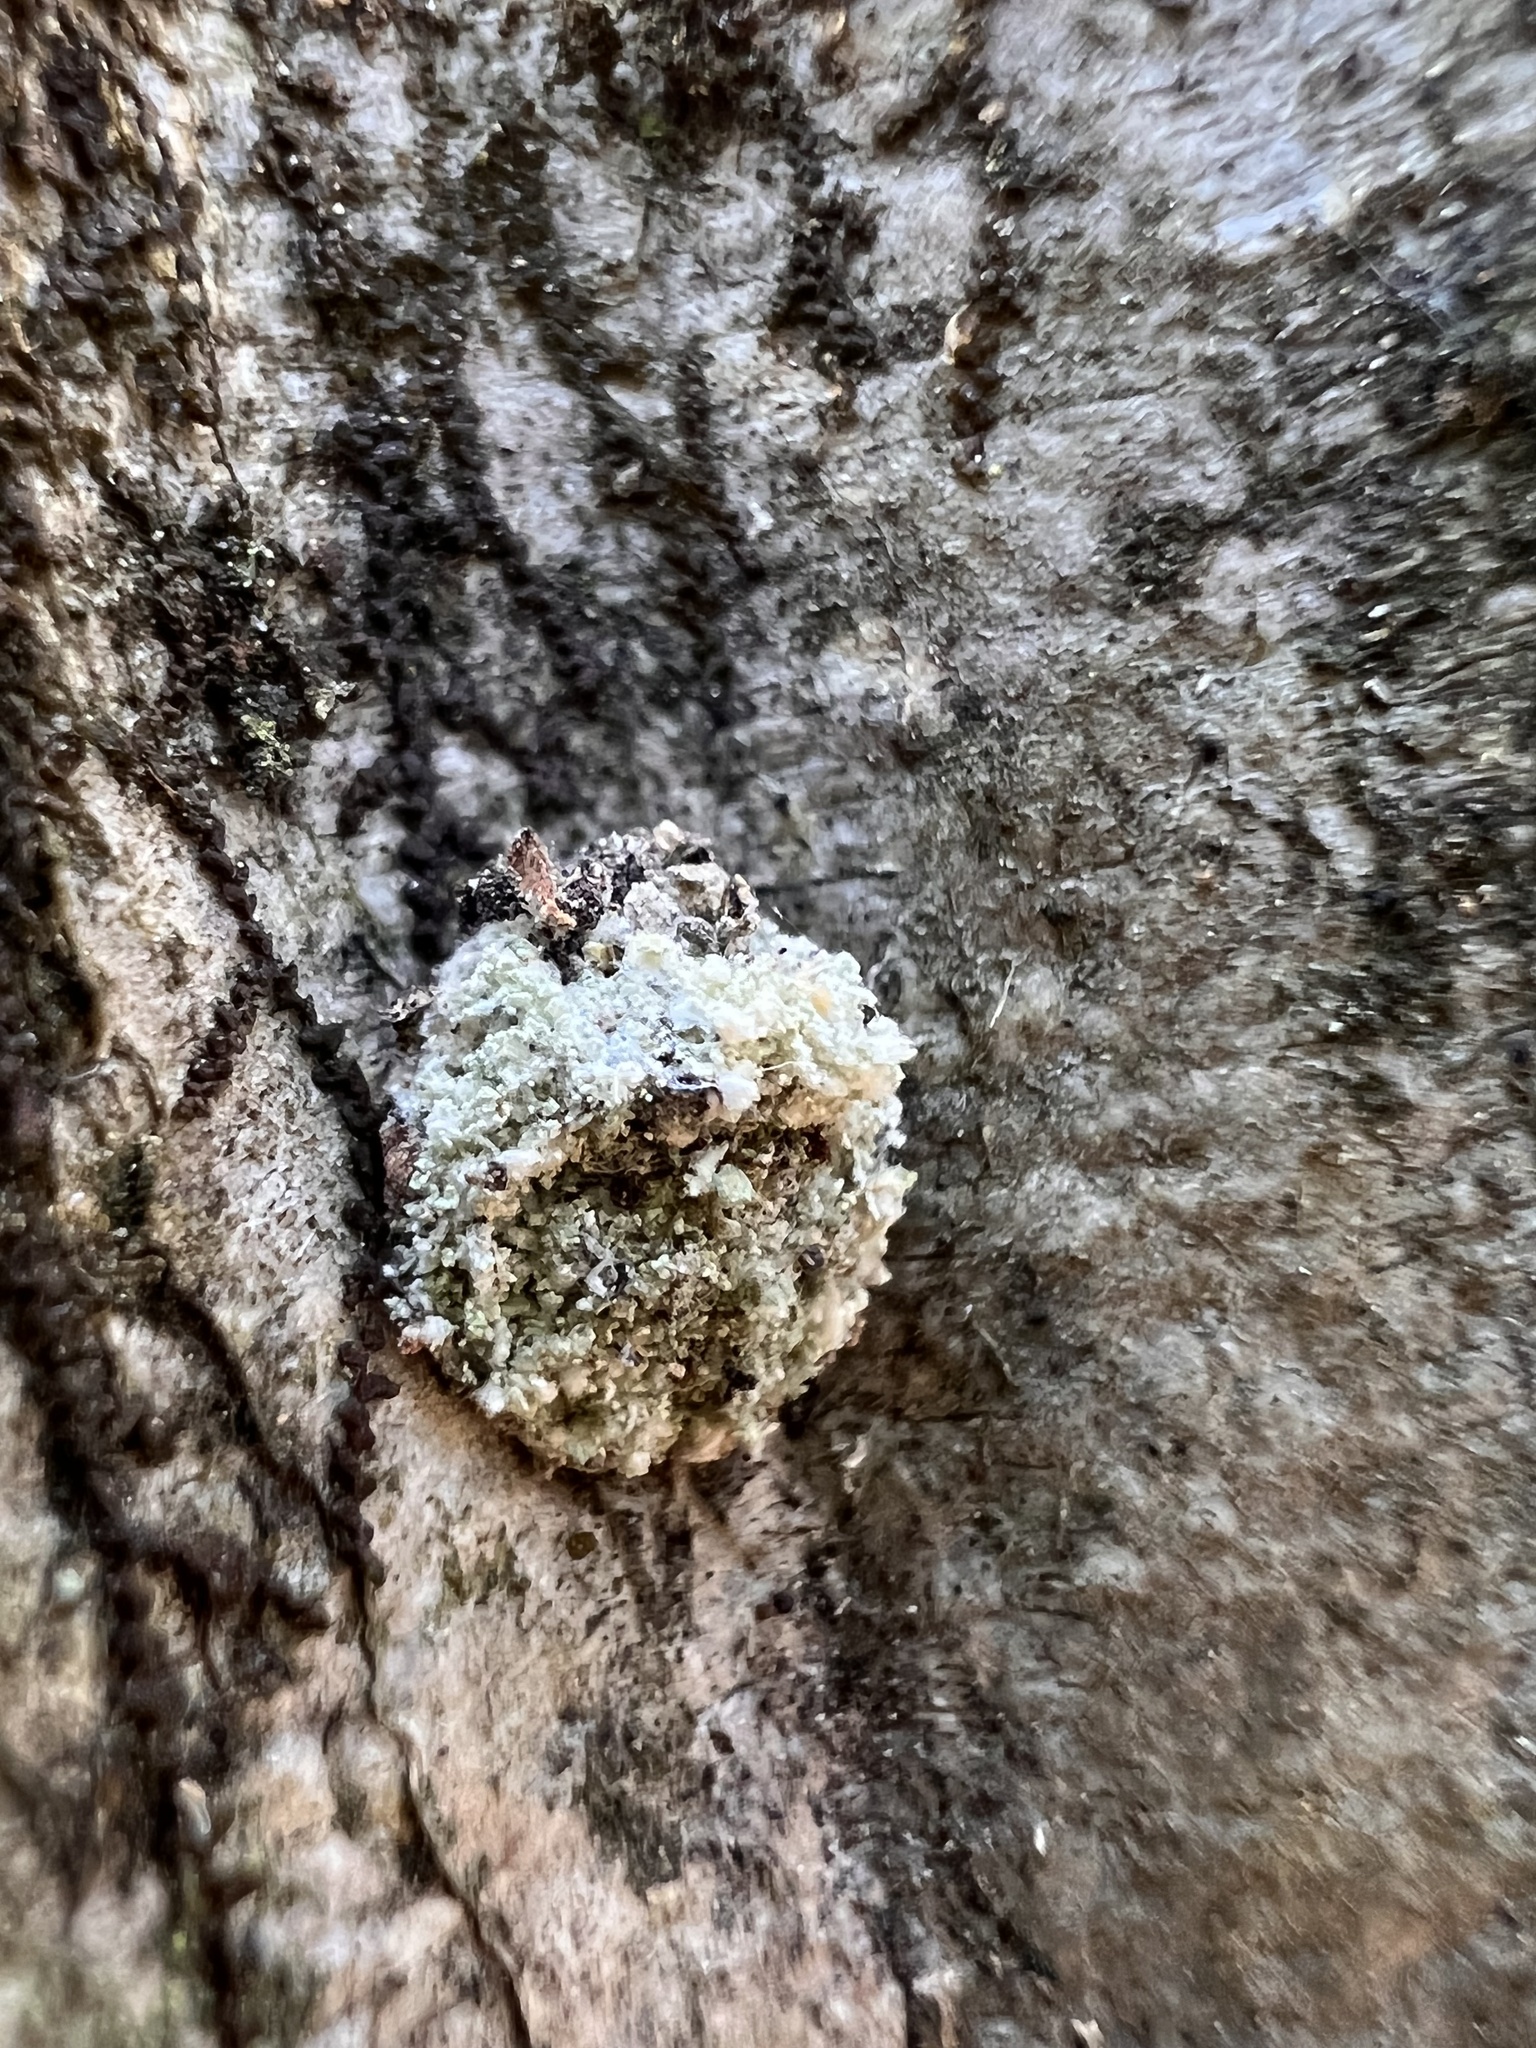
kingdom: Animalia
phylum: Arthropoda
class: Insecta
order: Neuroptera
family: Chrysopidae
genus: Leucochrysa
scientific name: Leucochrysa pavida
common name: Lichen-carrying green lacewing
